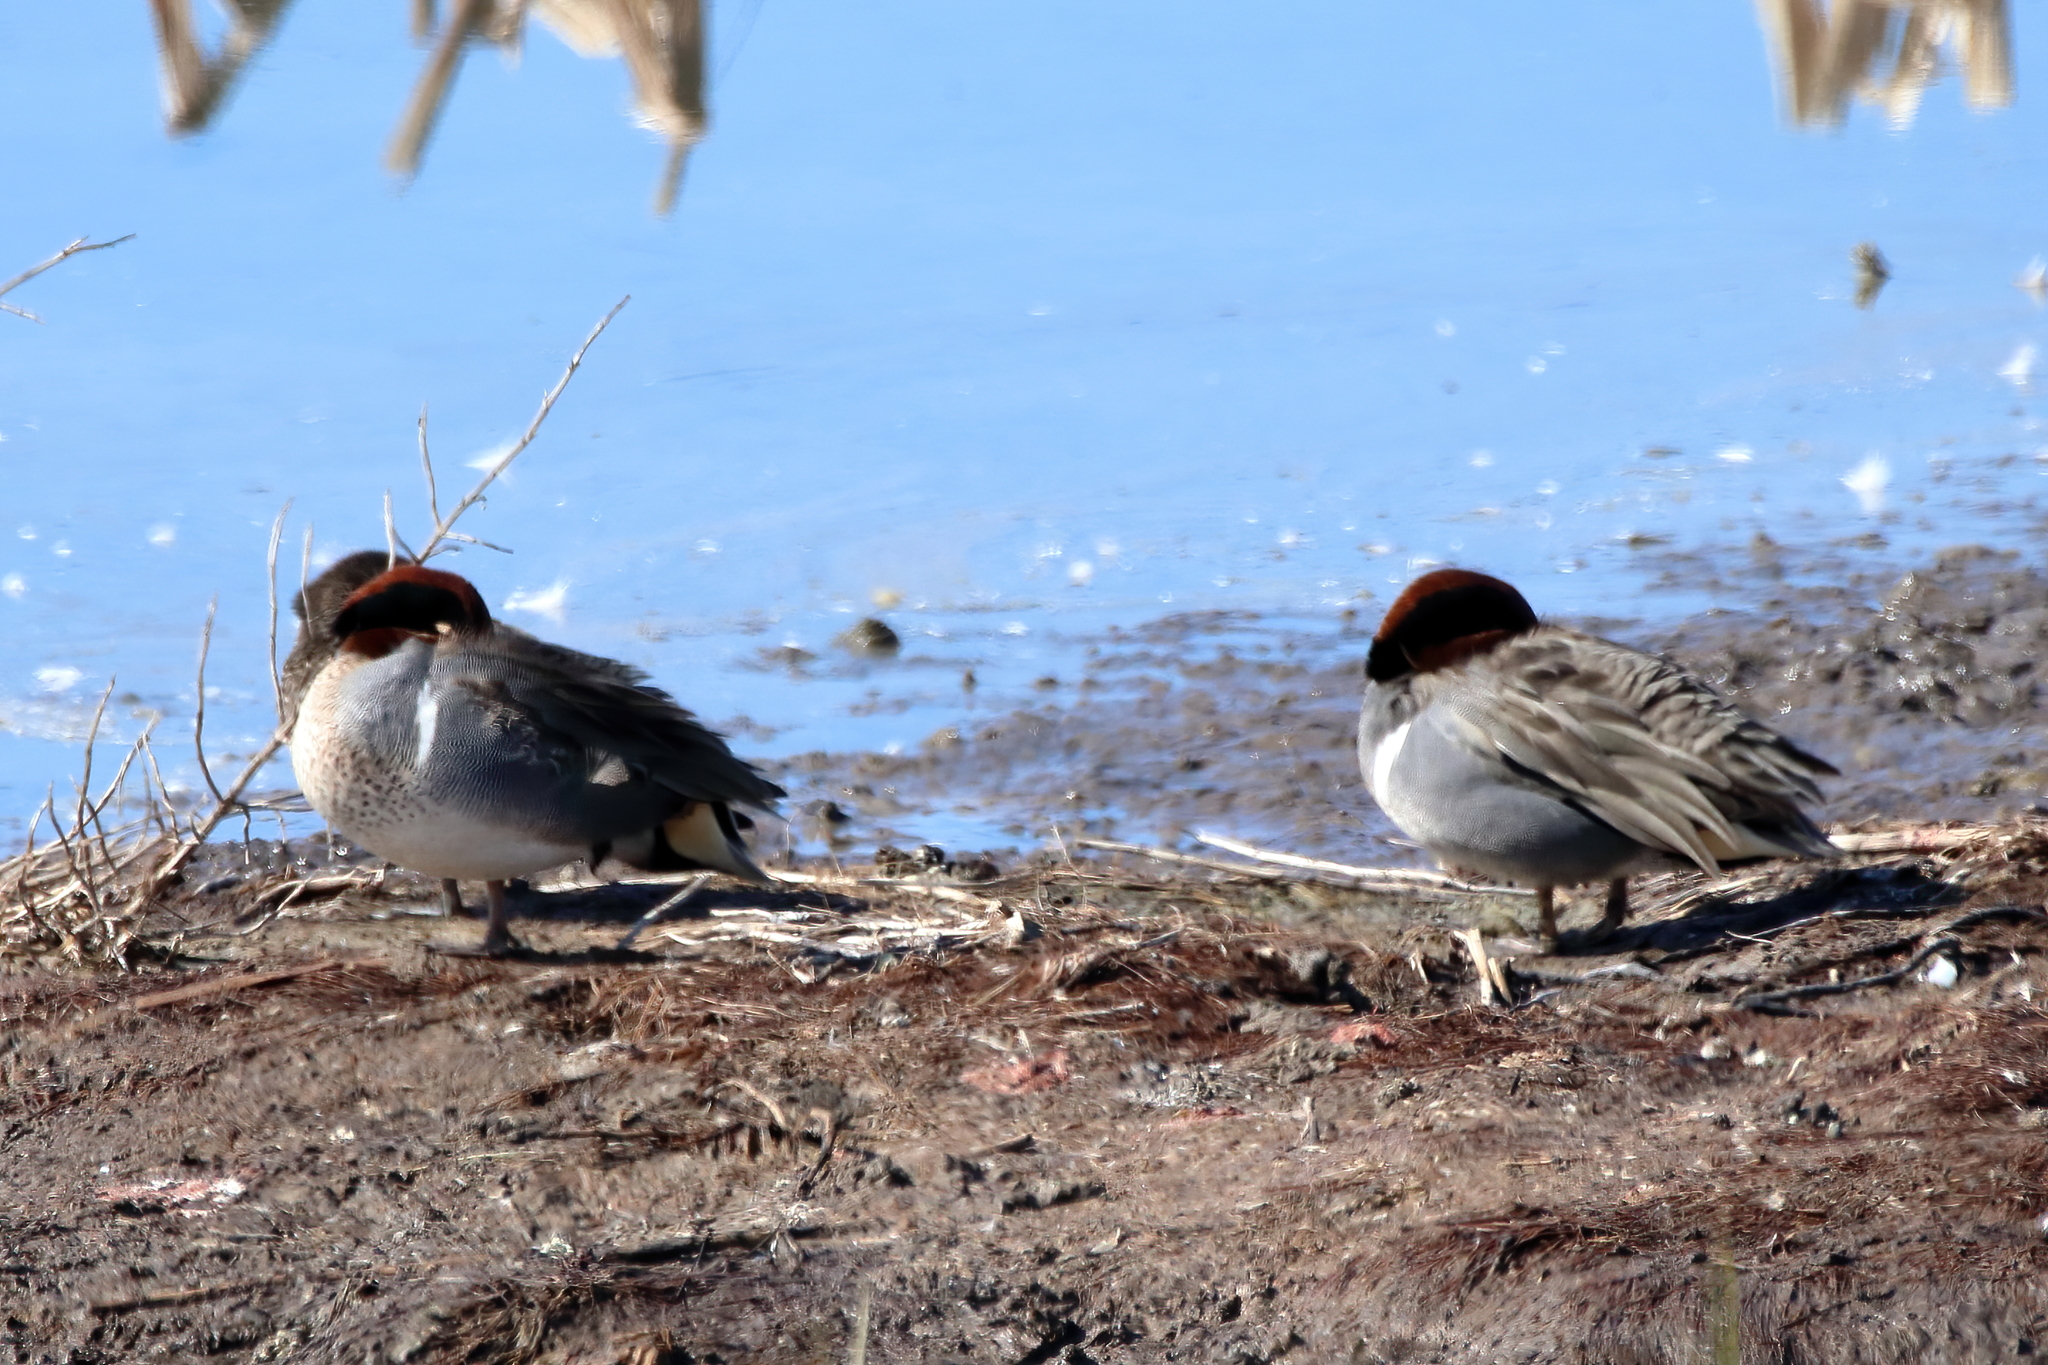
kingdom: Animalia
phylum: Chordata
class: Aves
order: Anseriformes
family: Anatidae
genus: Anas
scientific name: Anas crecca
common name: Eurasian teal
